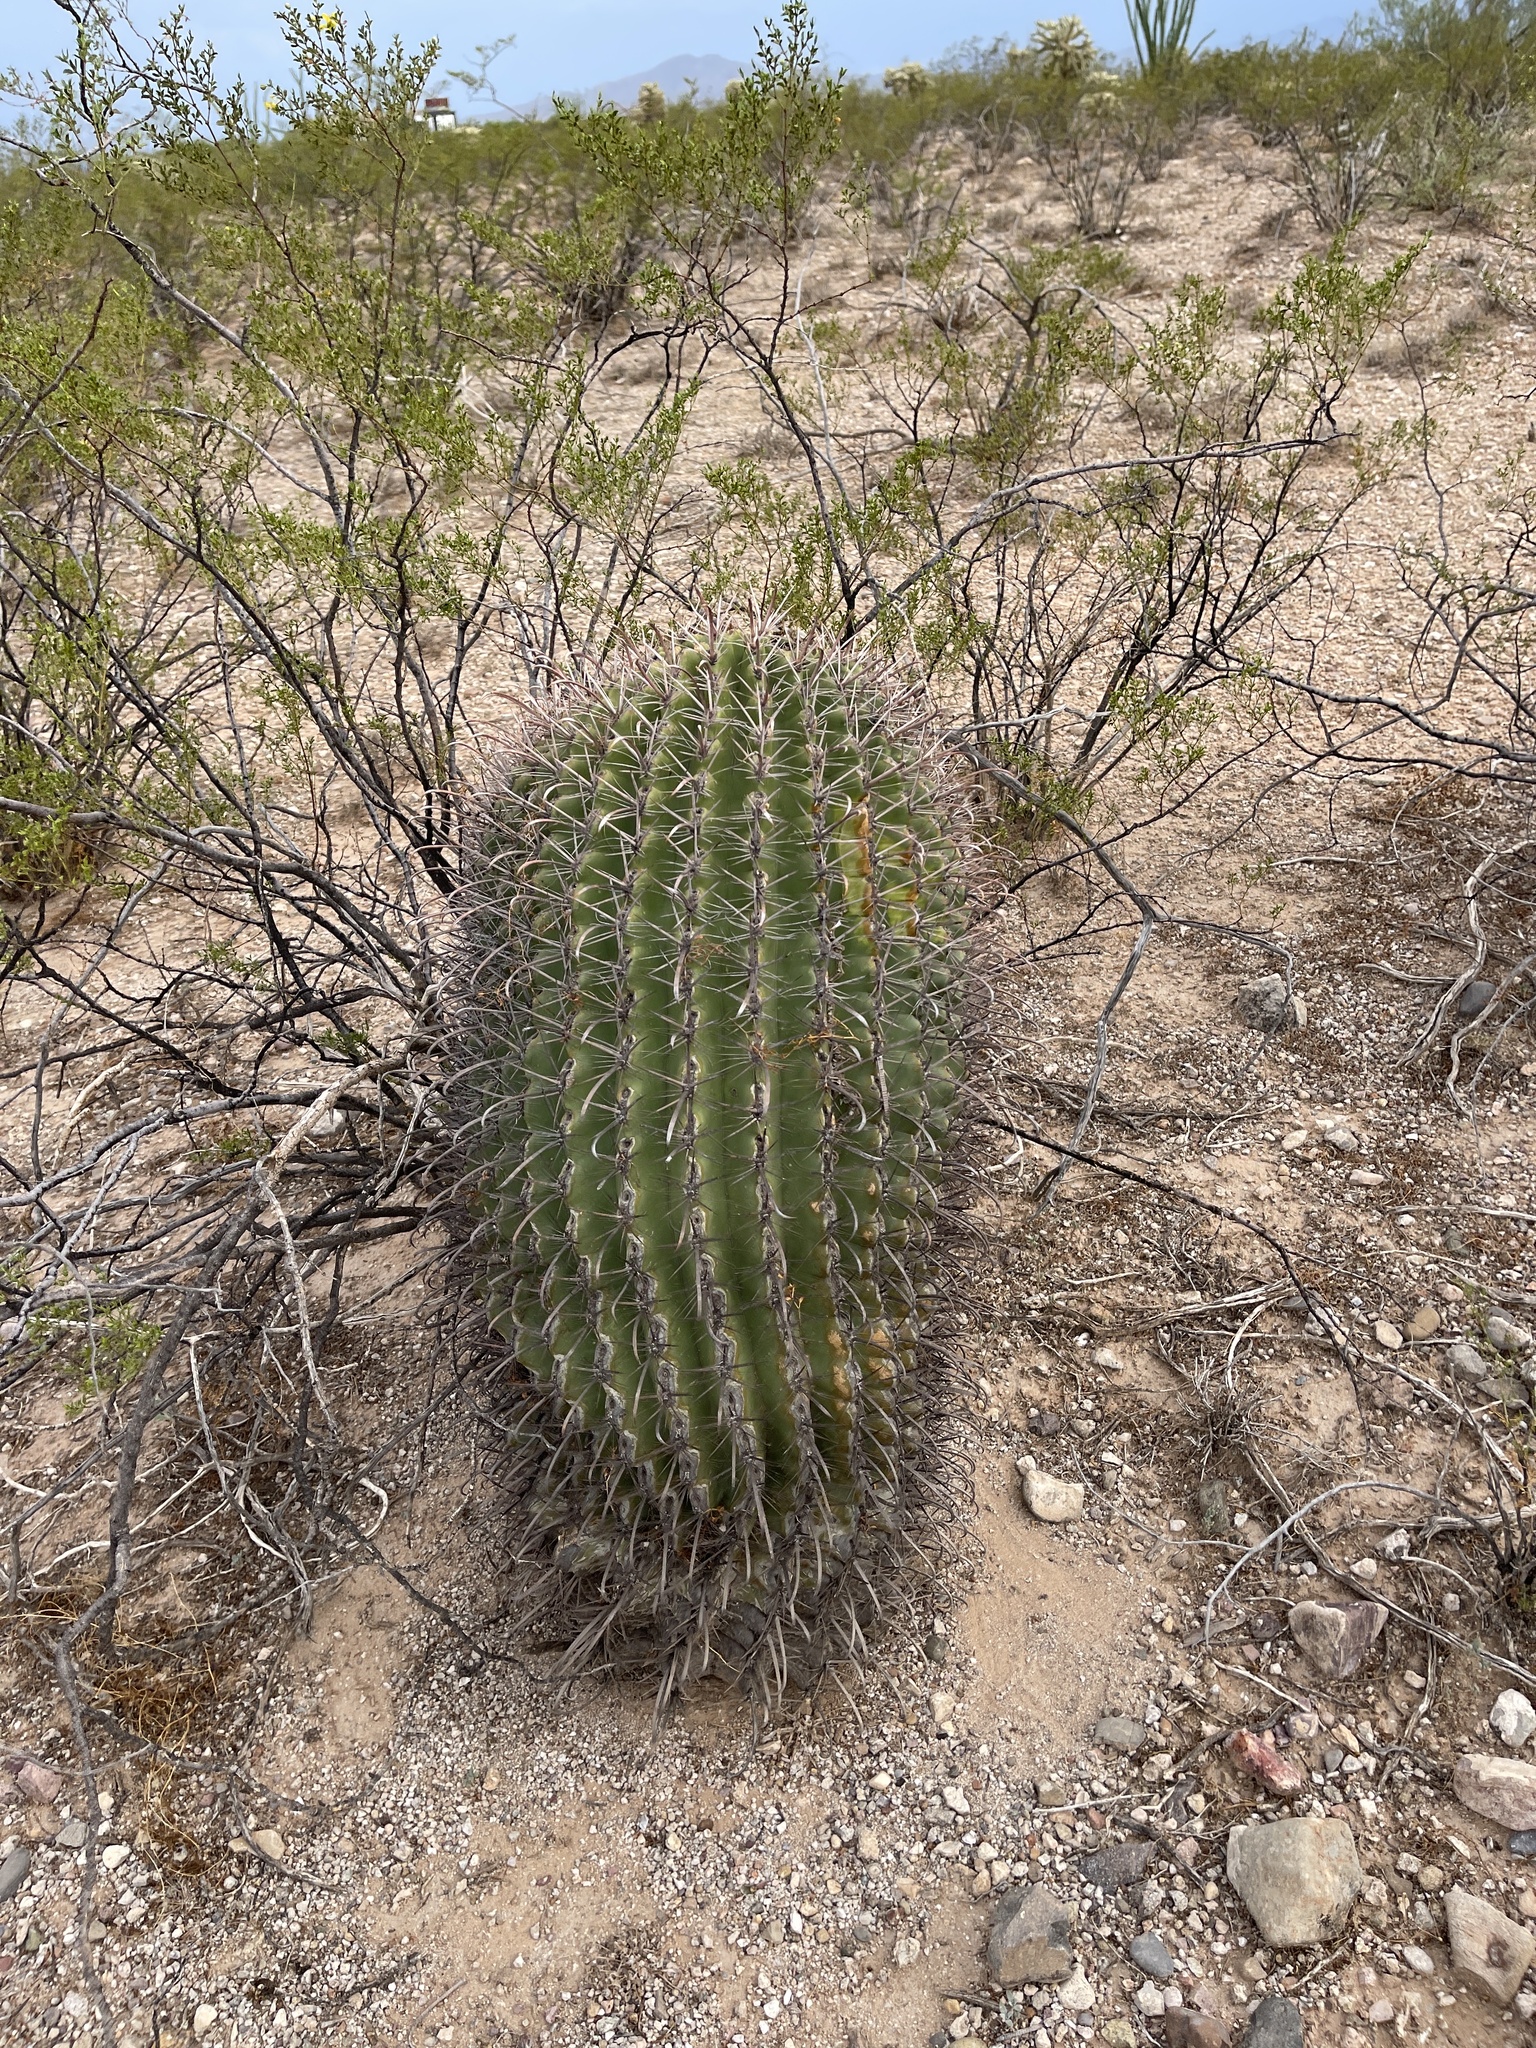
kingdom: Plantae
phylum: Tracheophyta
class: Magnoliopsida
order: Caryophyllales
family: Cactaceae
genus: Ferocactus
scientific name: Ferocactus wislizeni
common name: Candy barrel cactus
